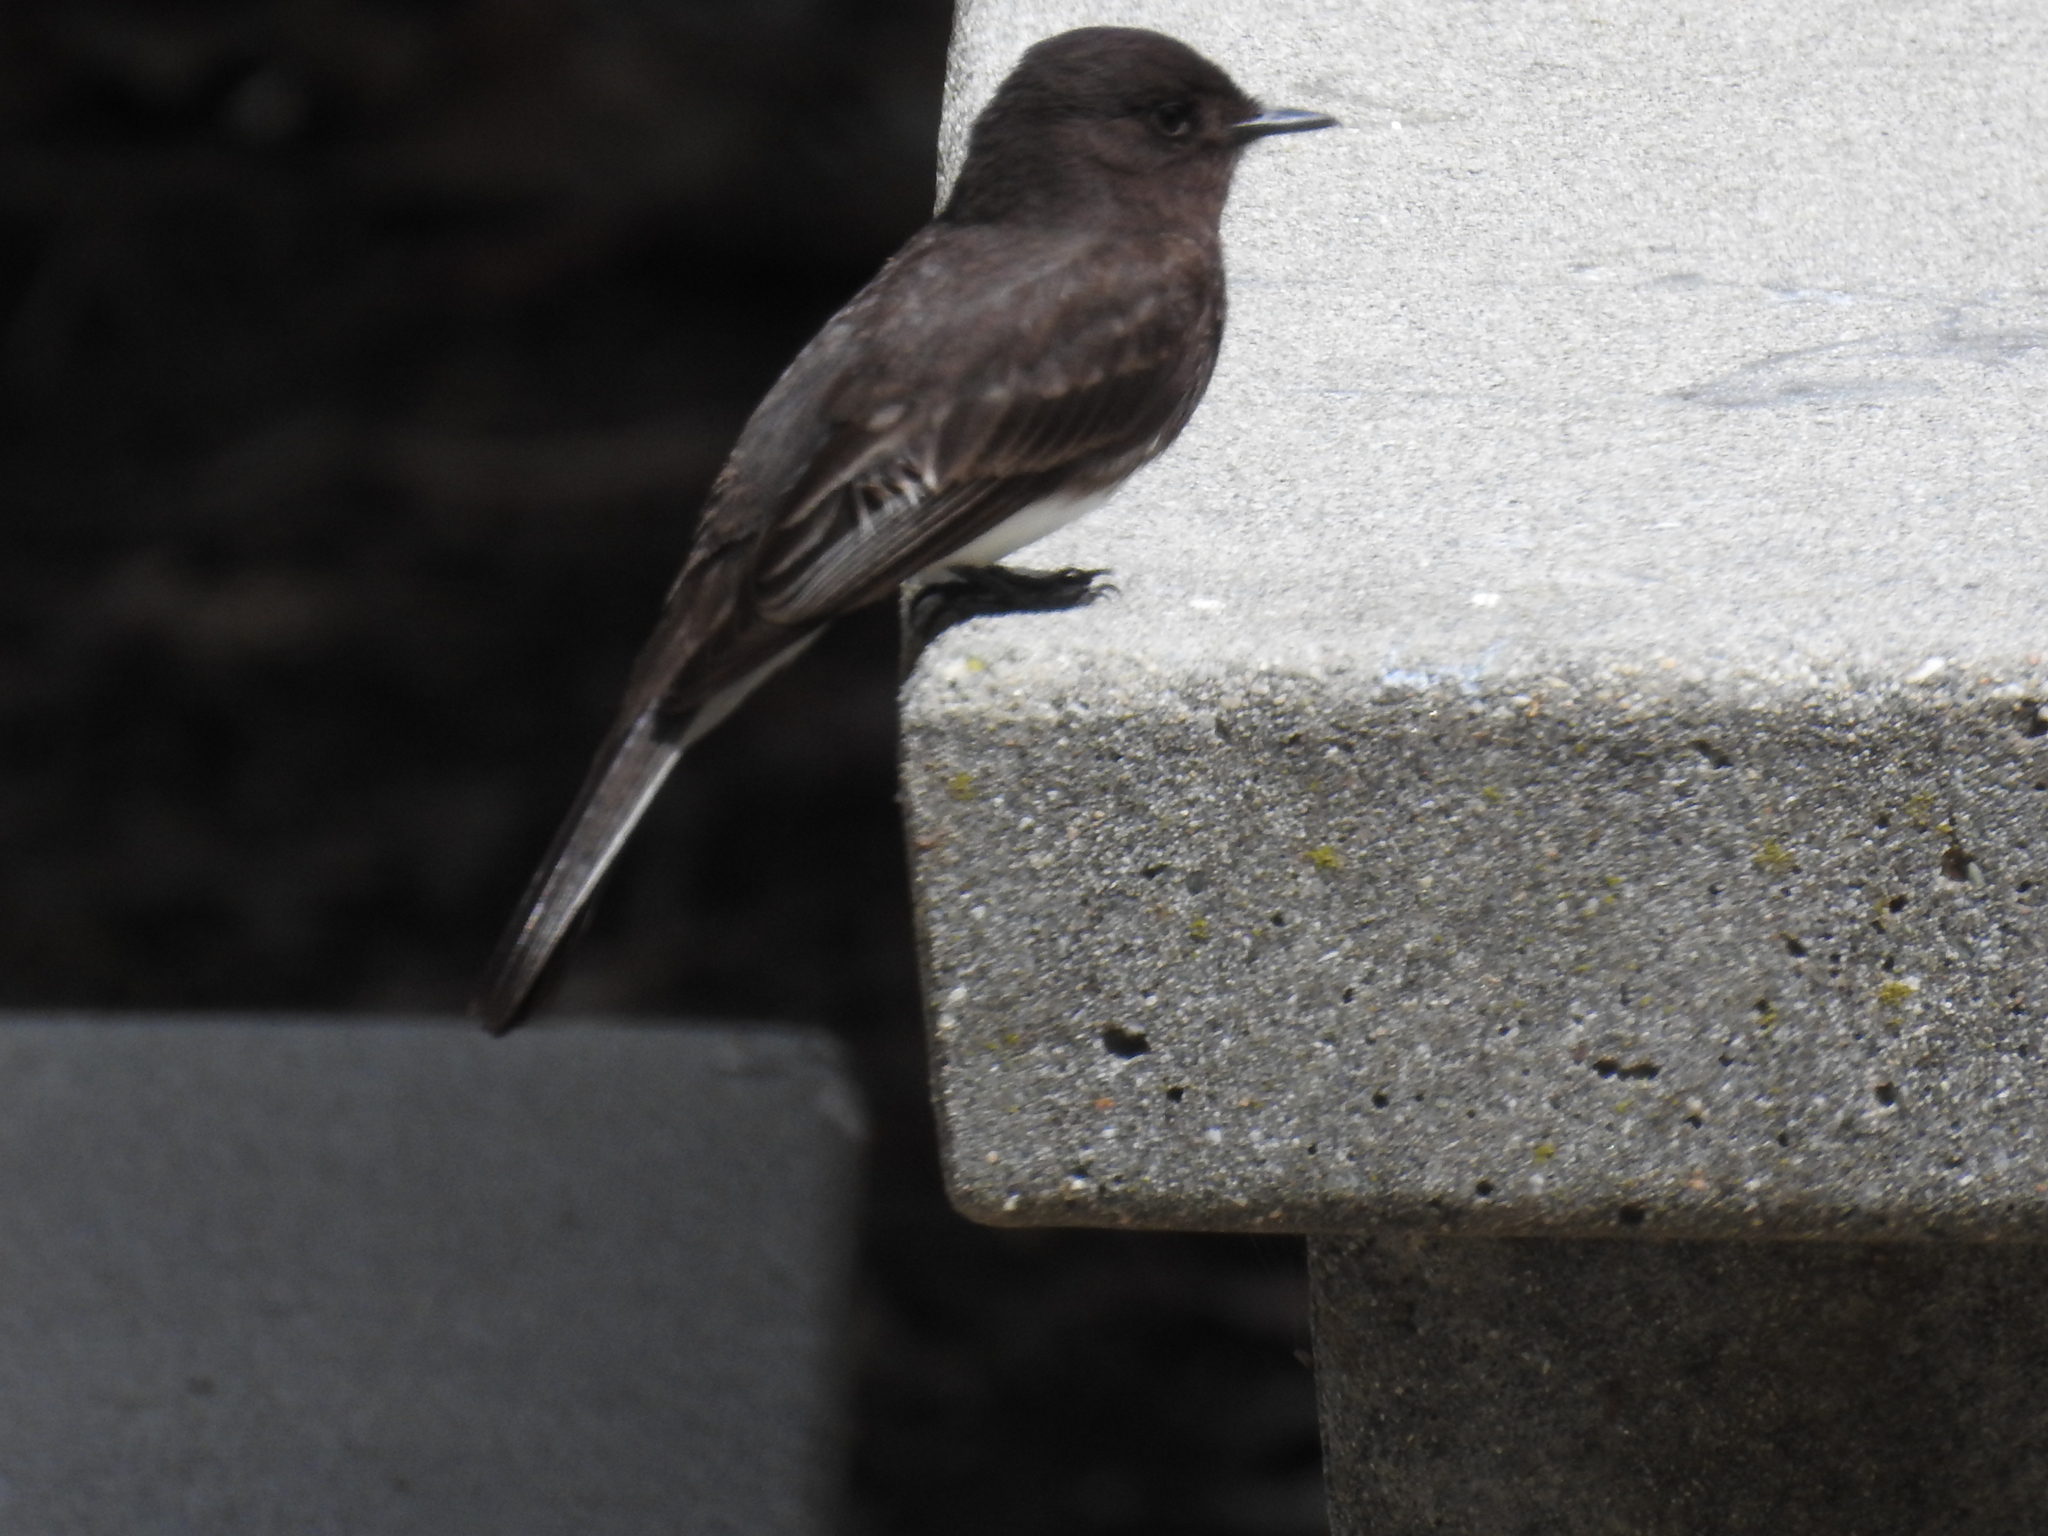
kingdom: Animalia
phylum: Chordata
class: Aves
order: Passeriformes
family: Tyrannidae
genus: Sayornis
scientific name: Sayornis nigricans
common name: Black phoebe
